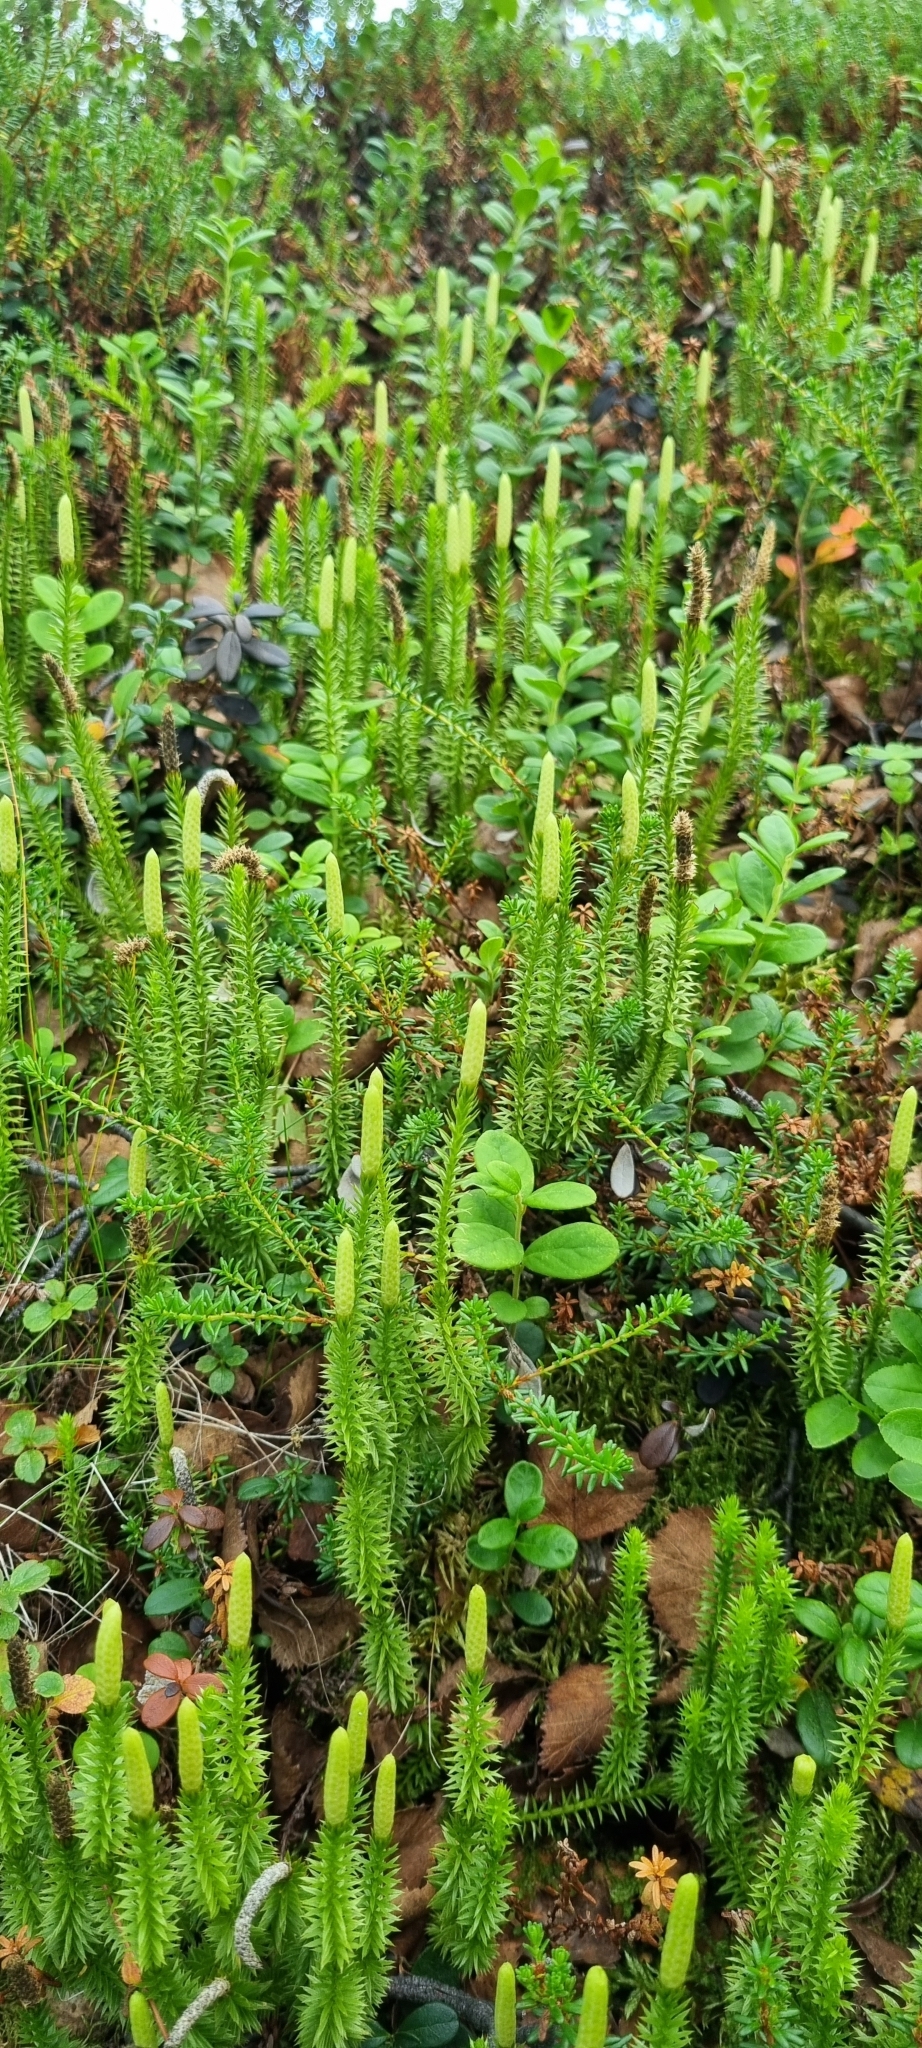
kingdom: Plantae
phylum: Tracheophyta
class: Lycopodiopsida
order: Lycopodiales
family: Lycopodiaceae
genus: Spinulum
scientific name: Spinulum annotinum
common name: Interrupted club-moss
